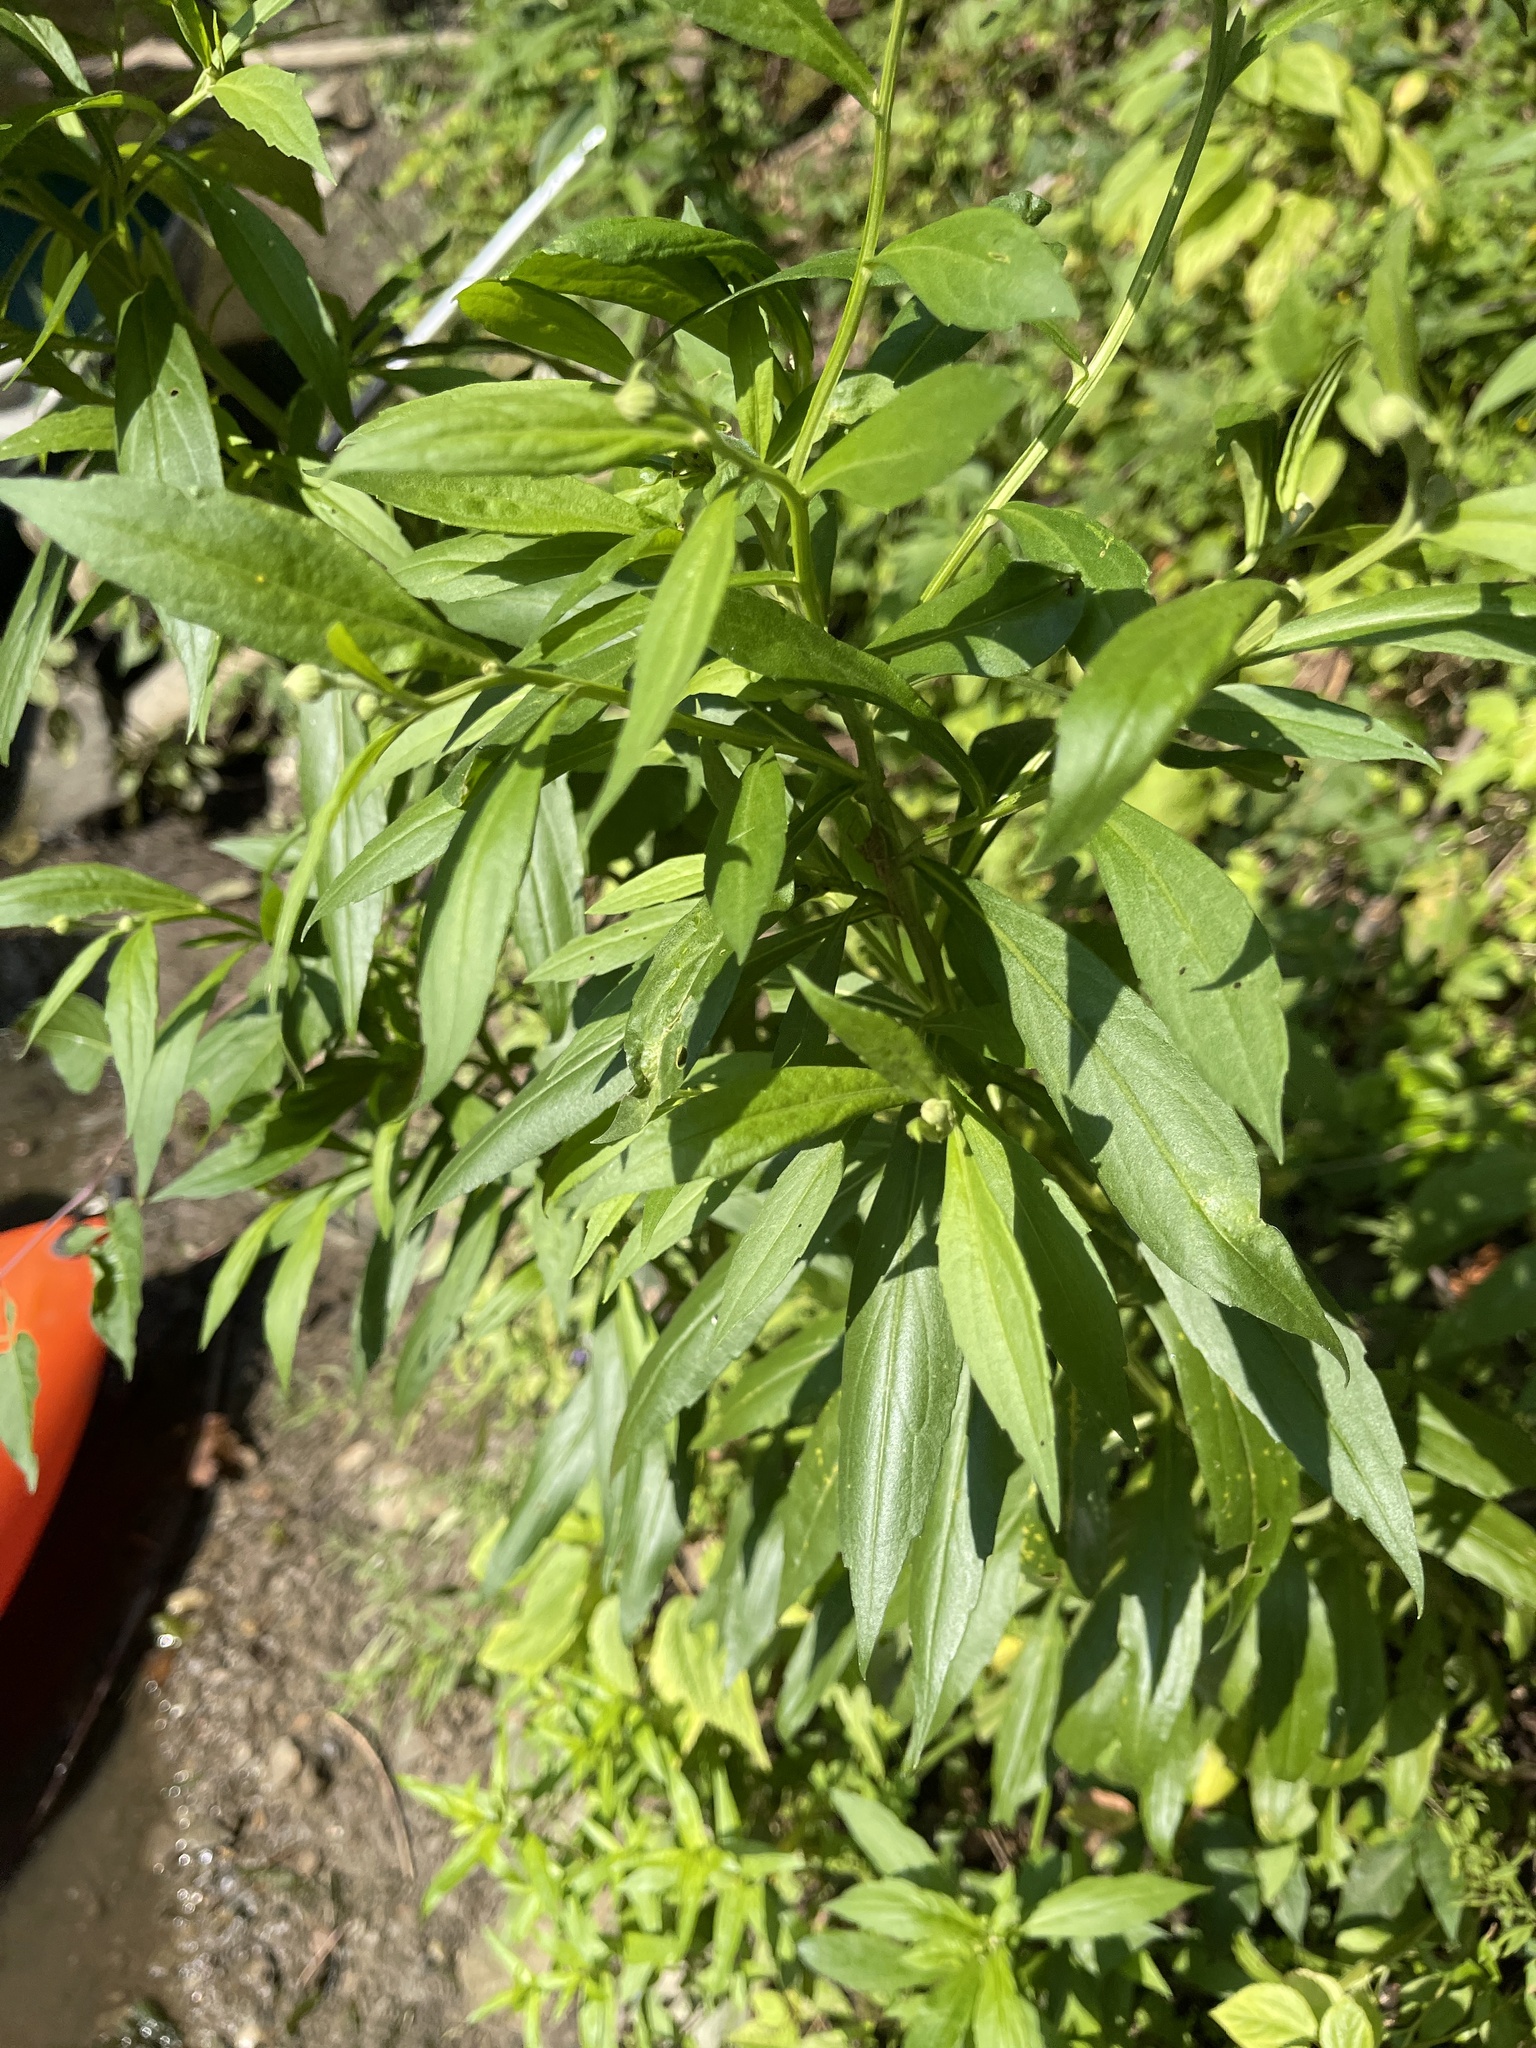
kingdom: Plantae
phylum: Tracheophyta
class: Magnoliopsida
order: Asterales
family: Asteraceae
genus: Helenium
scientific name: Helenium autumnale
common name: Sneezeweed
